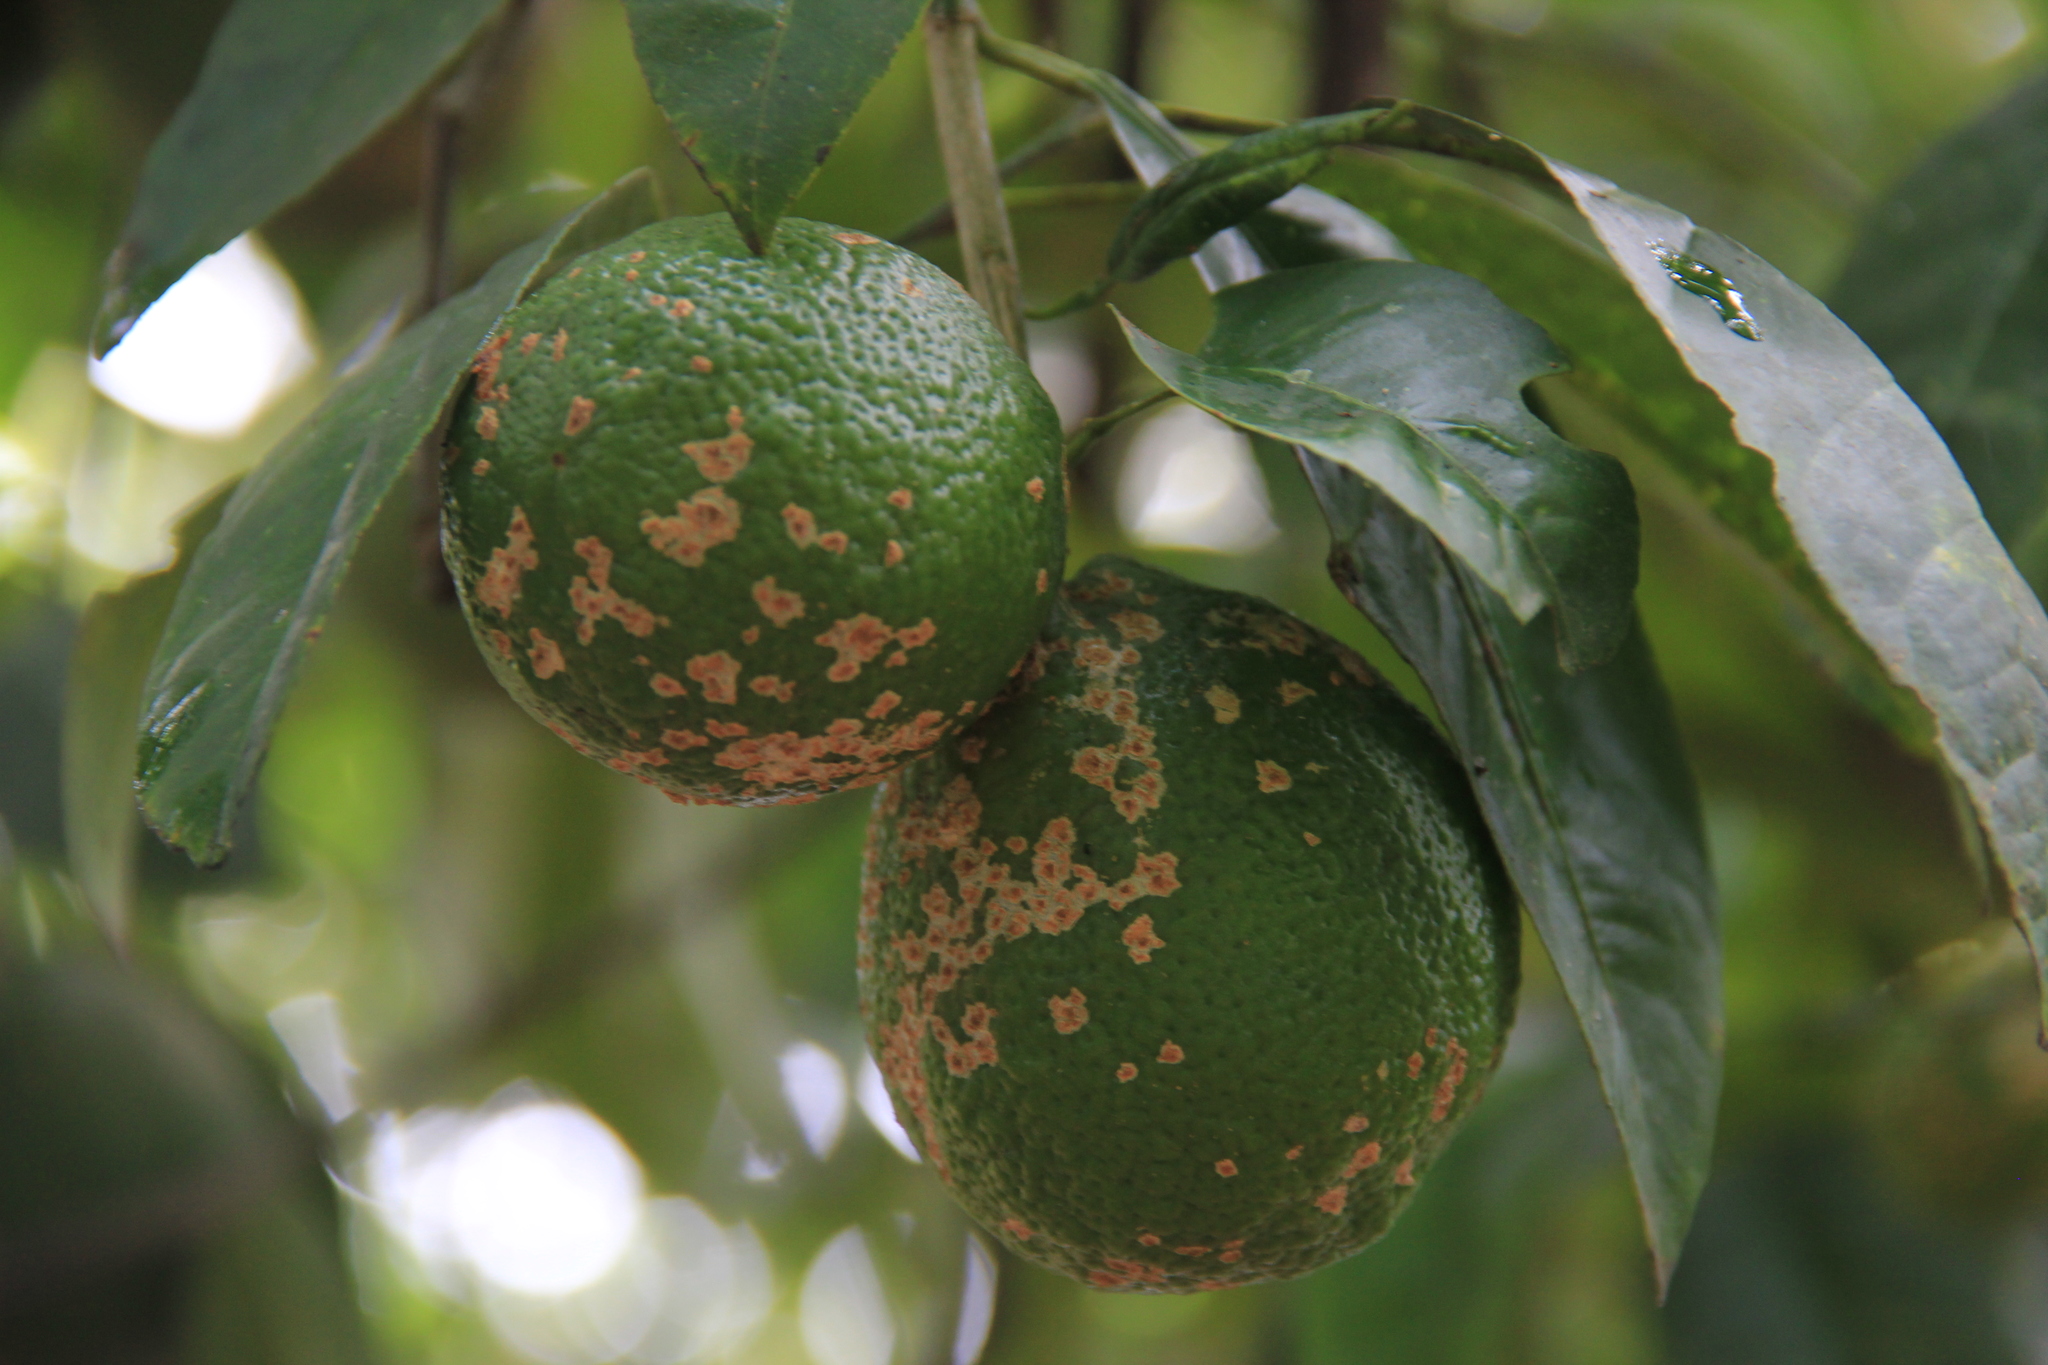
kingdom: Animalia
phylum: Arthropoda
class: Arachnida
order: Trombidiformes
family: Eriophyidae
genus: Phyllocoptruta
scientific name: Phyllocoptruta oleivora
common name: Citrus rust mite
